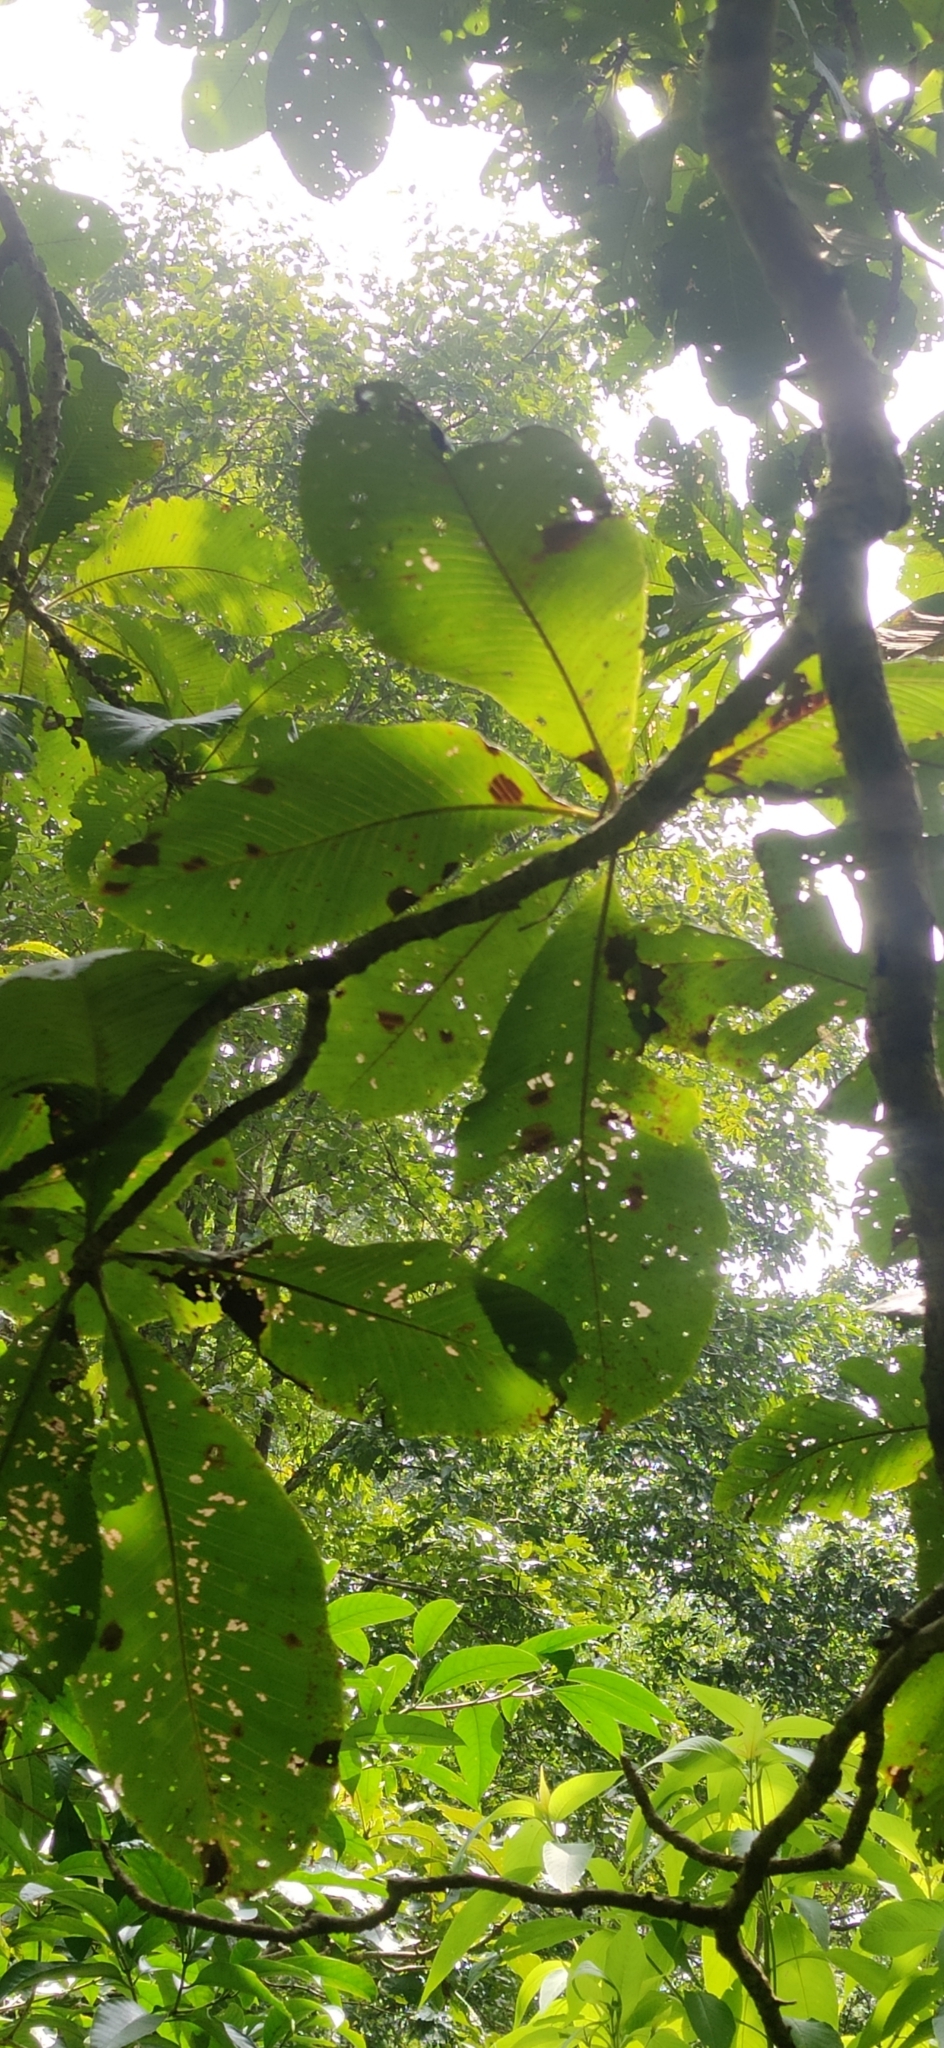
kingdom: Plantae
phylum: Tracheophyta
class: Magnoliopsida
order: Dilleniales
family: Dilleniaceae
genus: Dillenia
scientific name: Dillenia pentagyna
